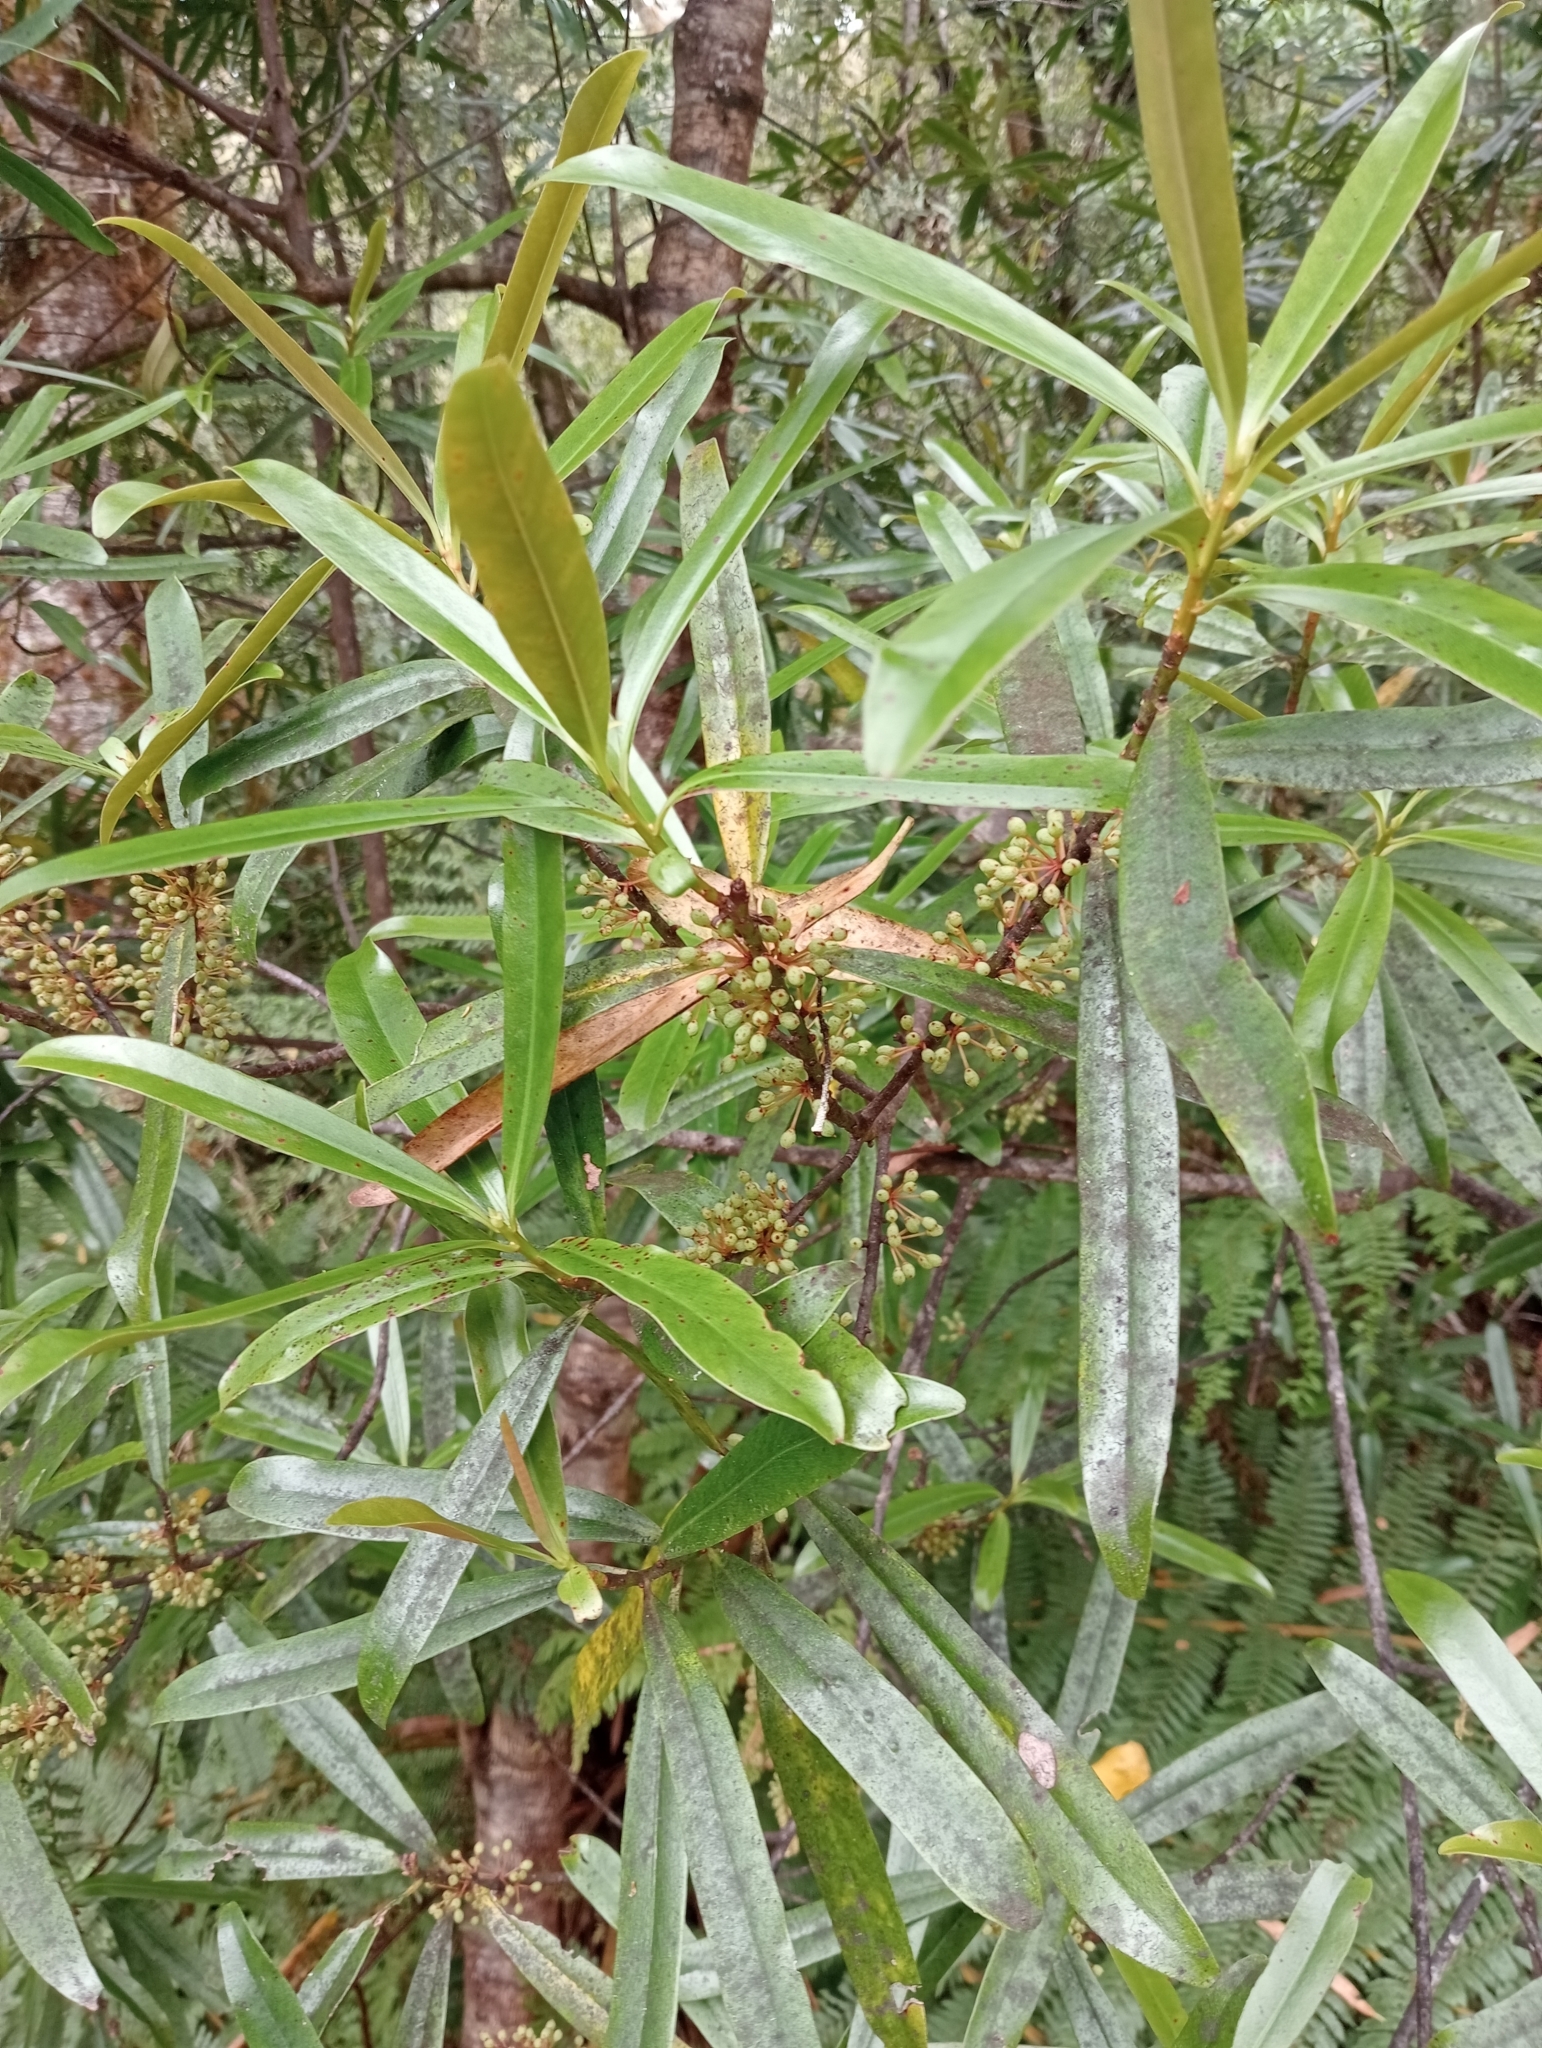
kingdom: Plantae
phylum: Tracheophyta
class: Magnoliopsida
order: Ericales
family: Primulaceae
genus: Myrsine
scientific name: Myrsine salicina
